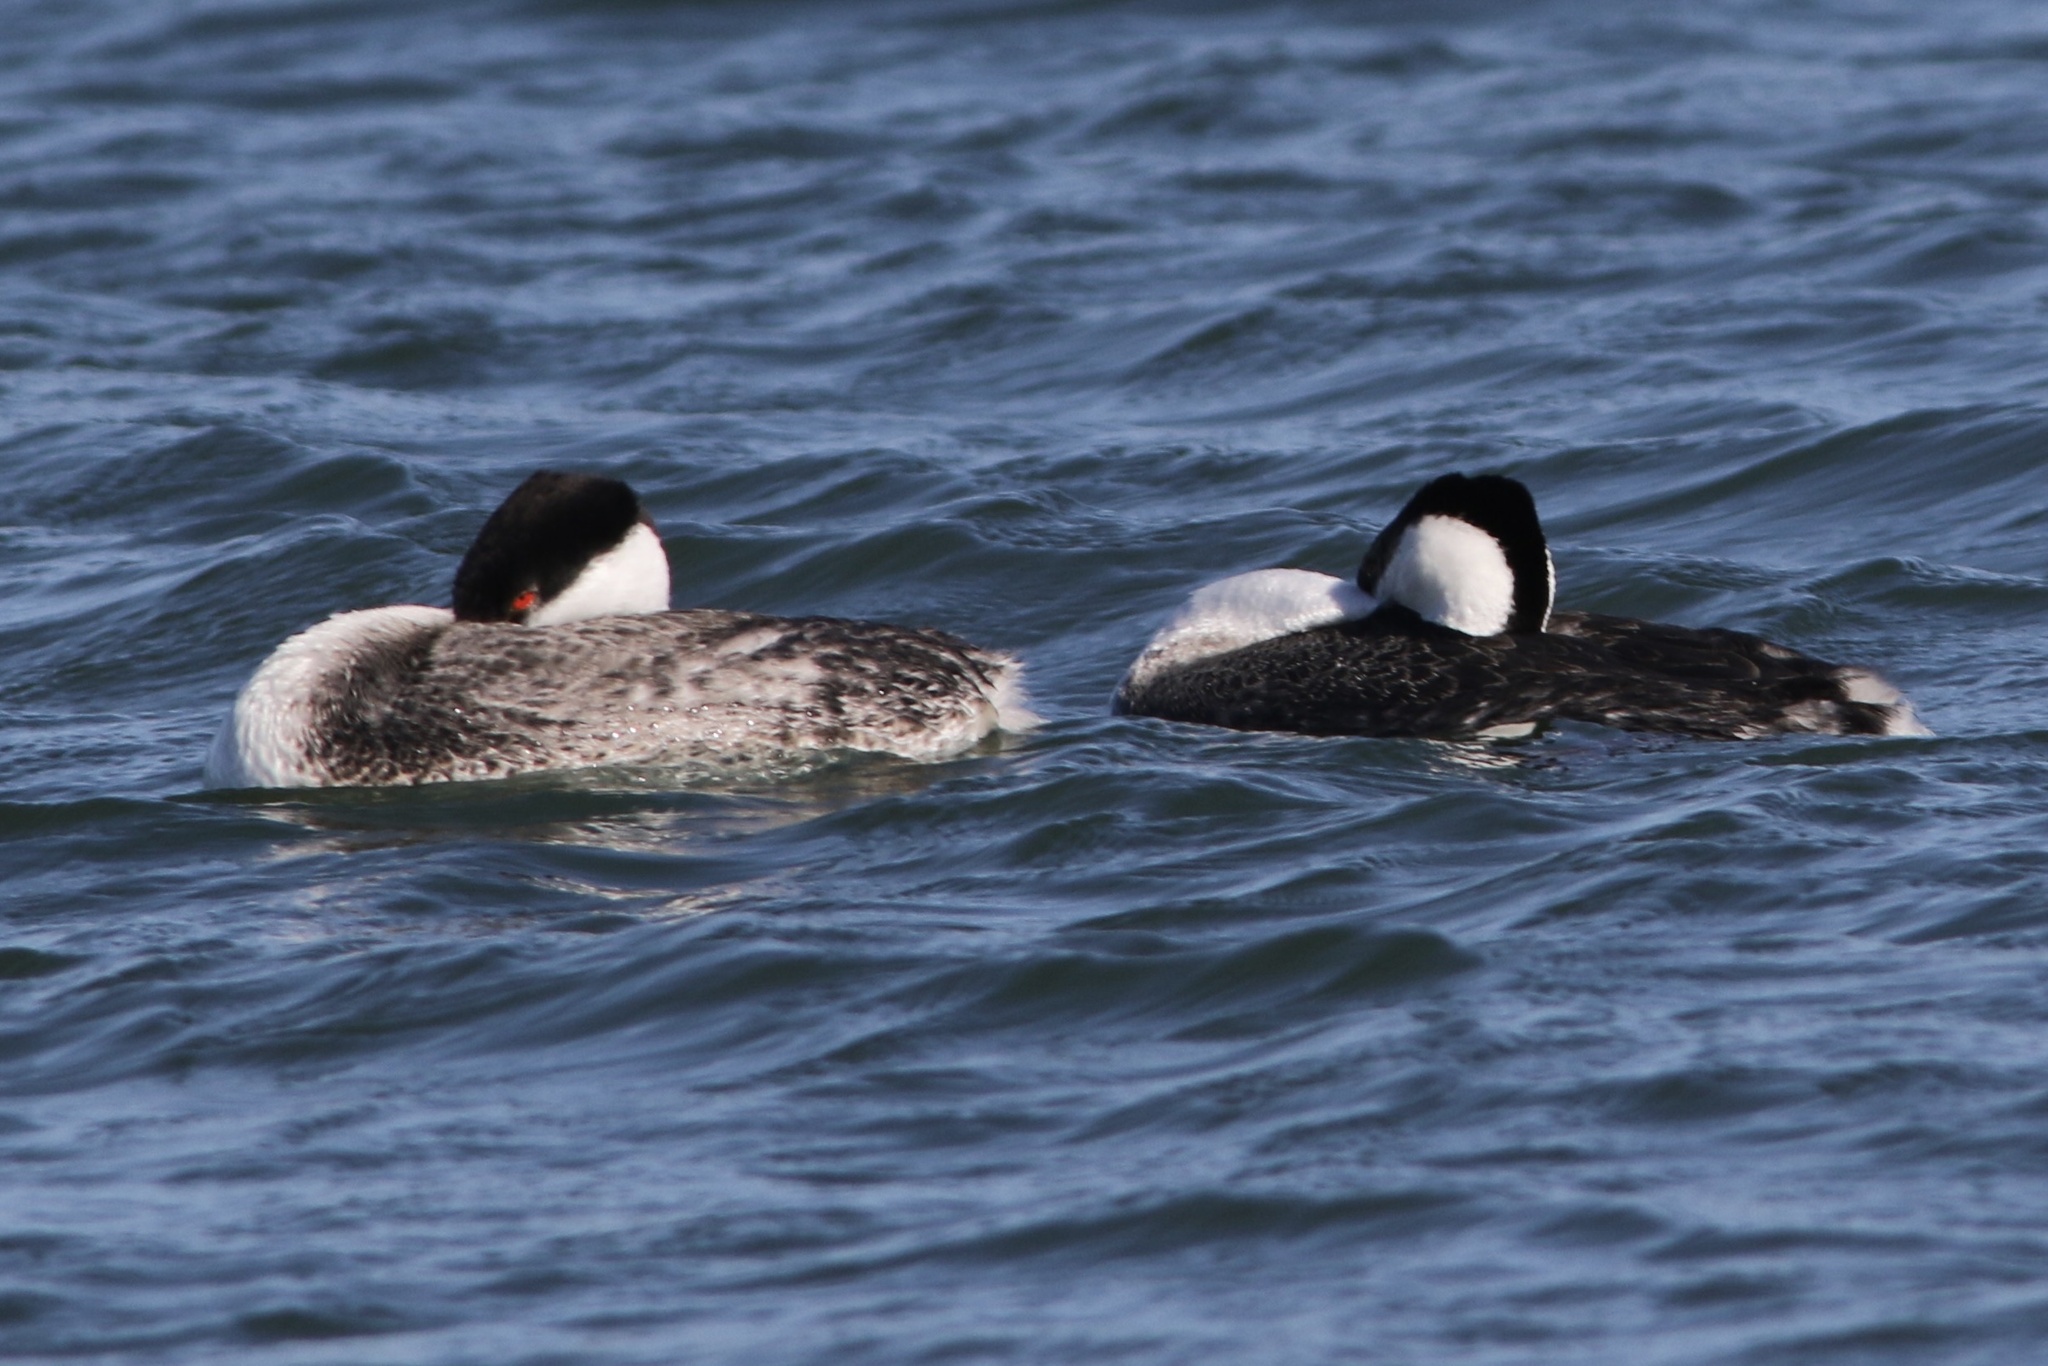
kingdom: Animalia
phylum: Chordata
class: Aves
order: Podicipediformes
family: Podicipedidae
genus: Aechmophorus
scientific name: Aechmophorus occidentalis
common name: Western grebe
